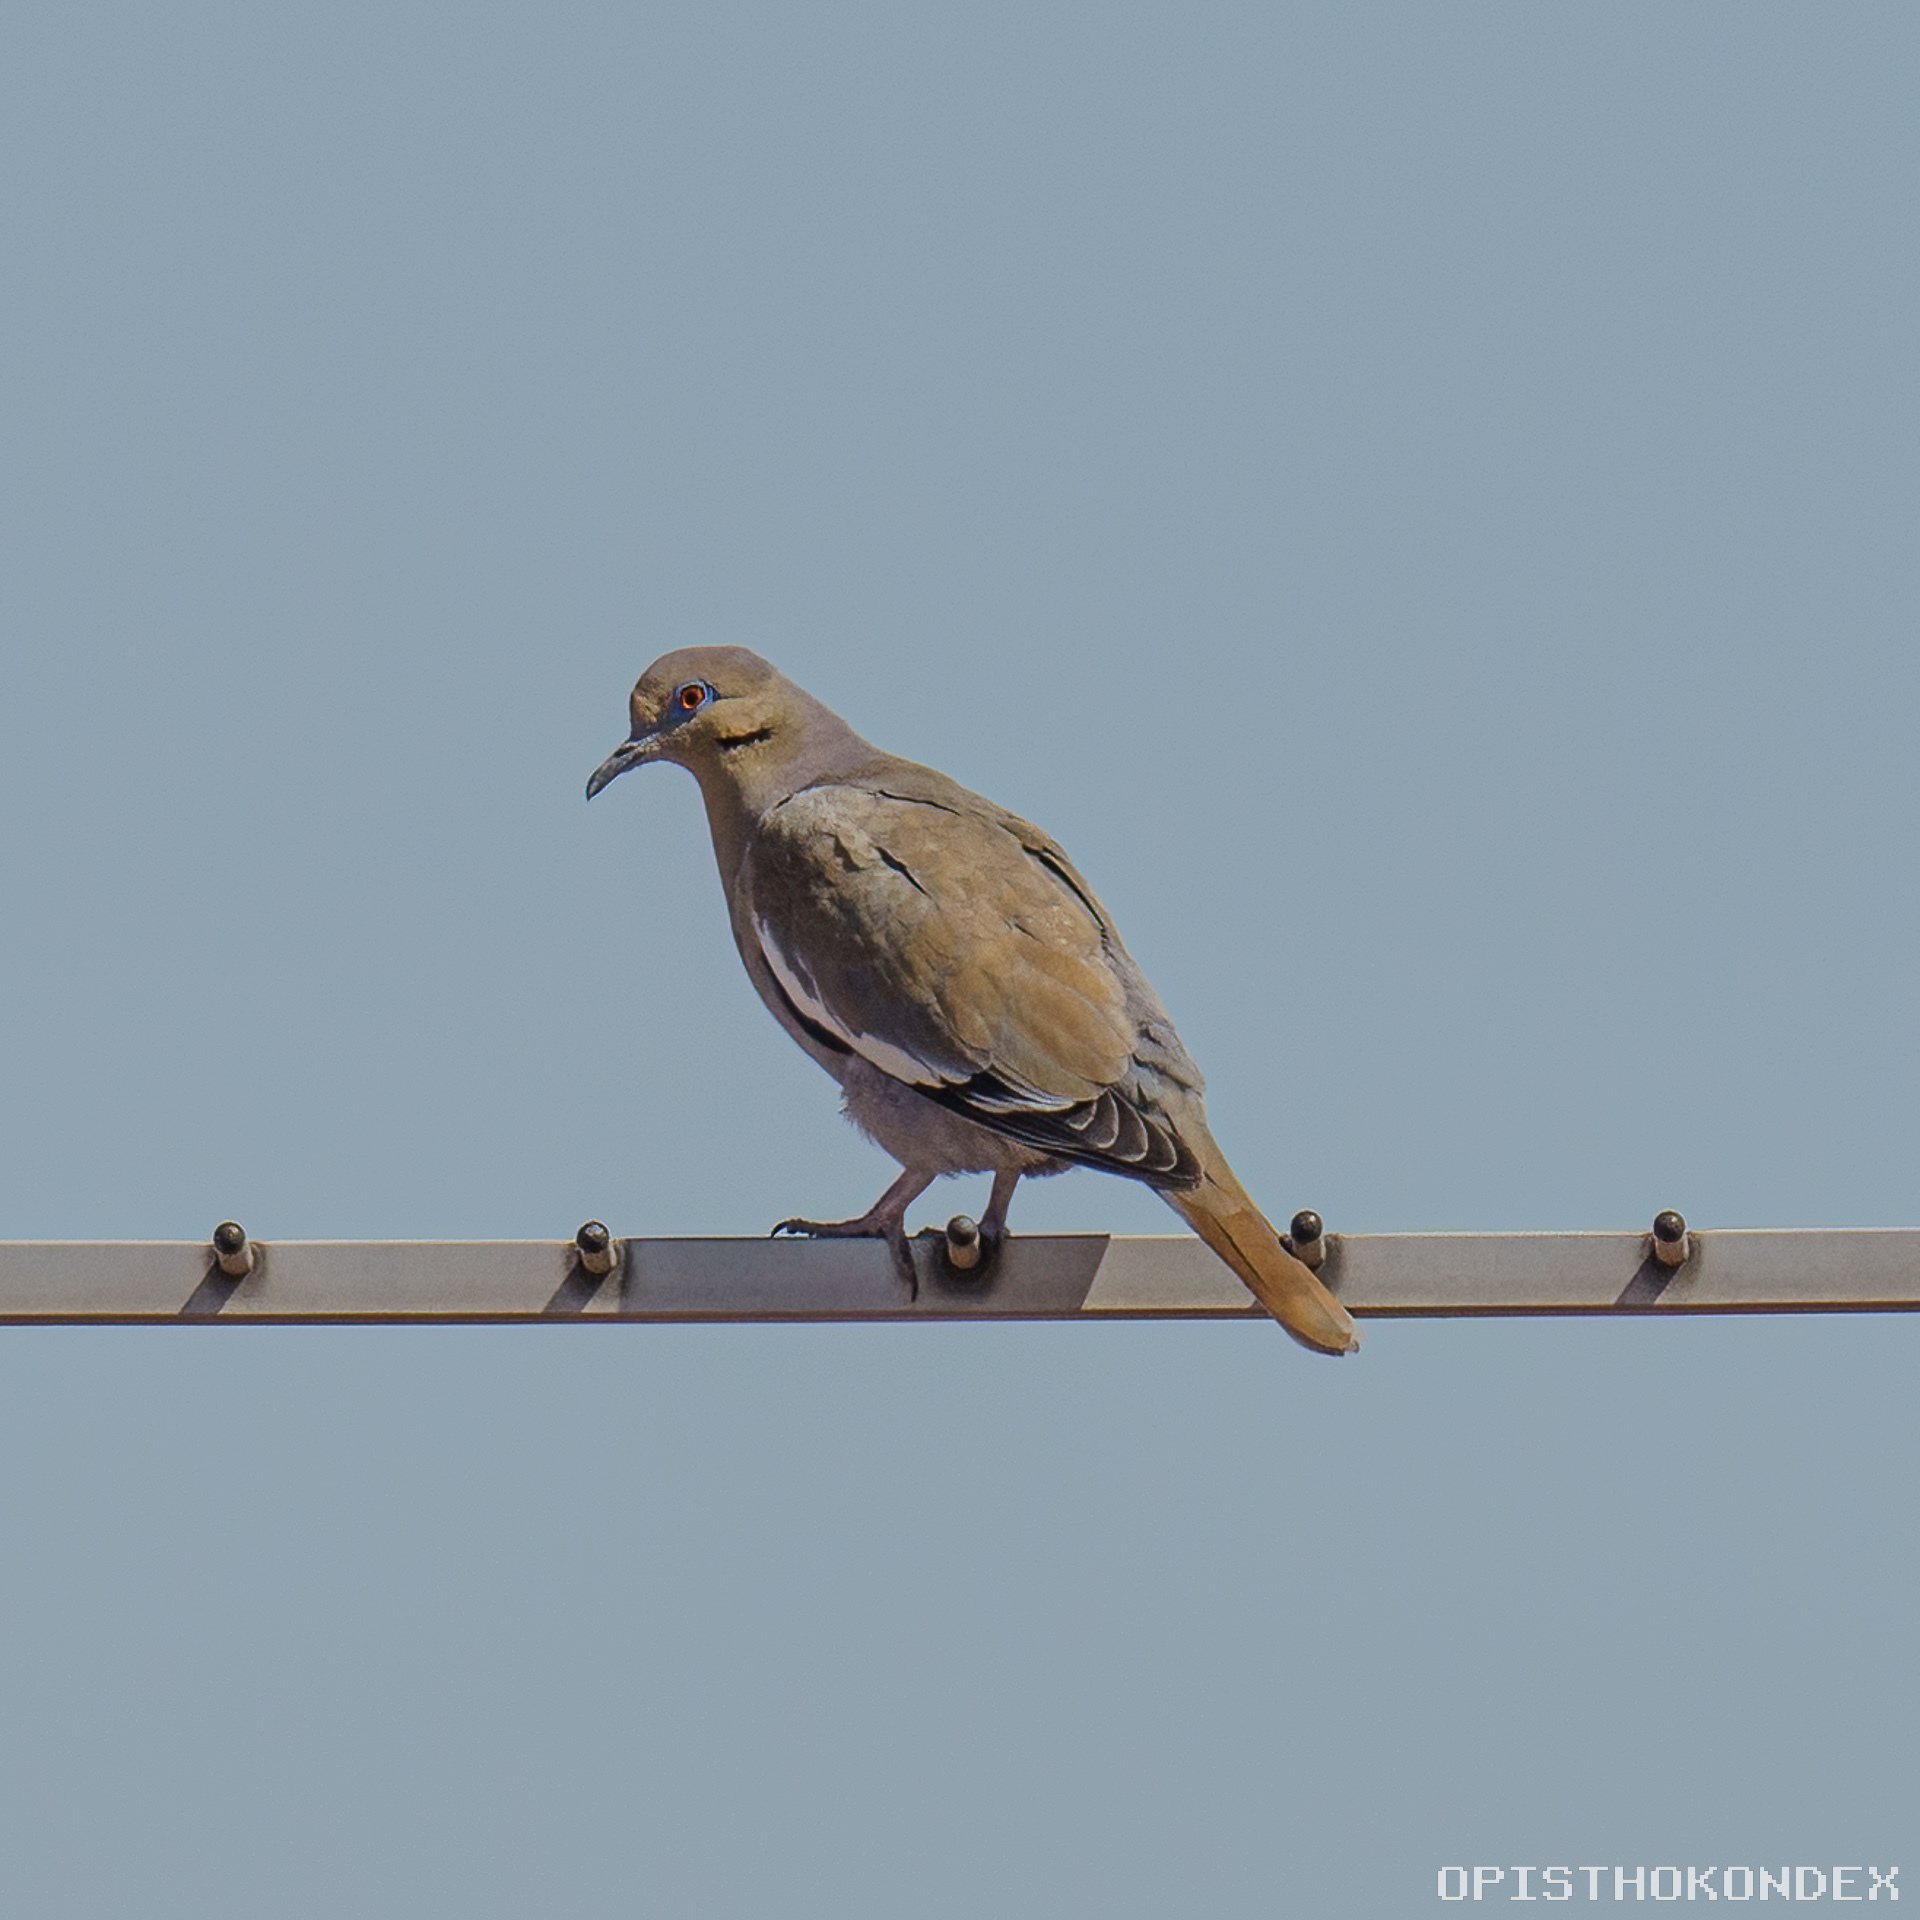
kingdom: Animalia
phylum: Chordata
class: Aves
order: Columbiformes
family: Columbidae
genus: Zenaida
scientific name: Zenaida asiatica
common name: White-winged dove
